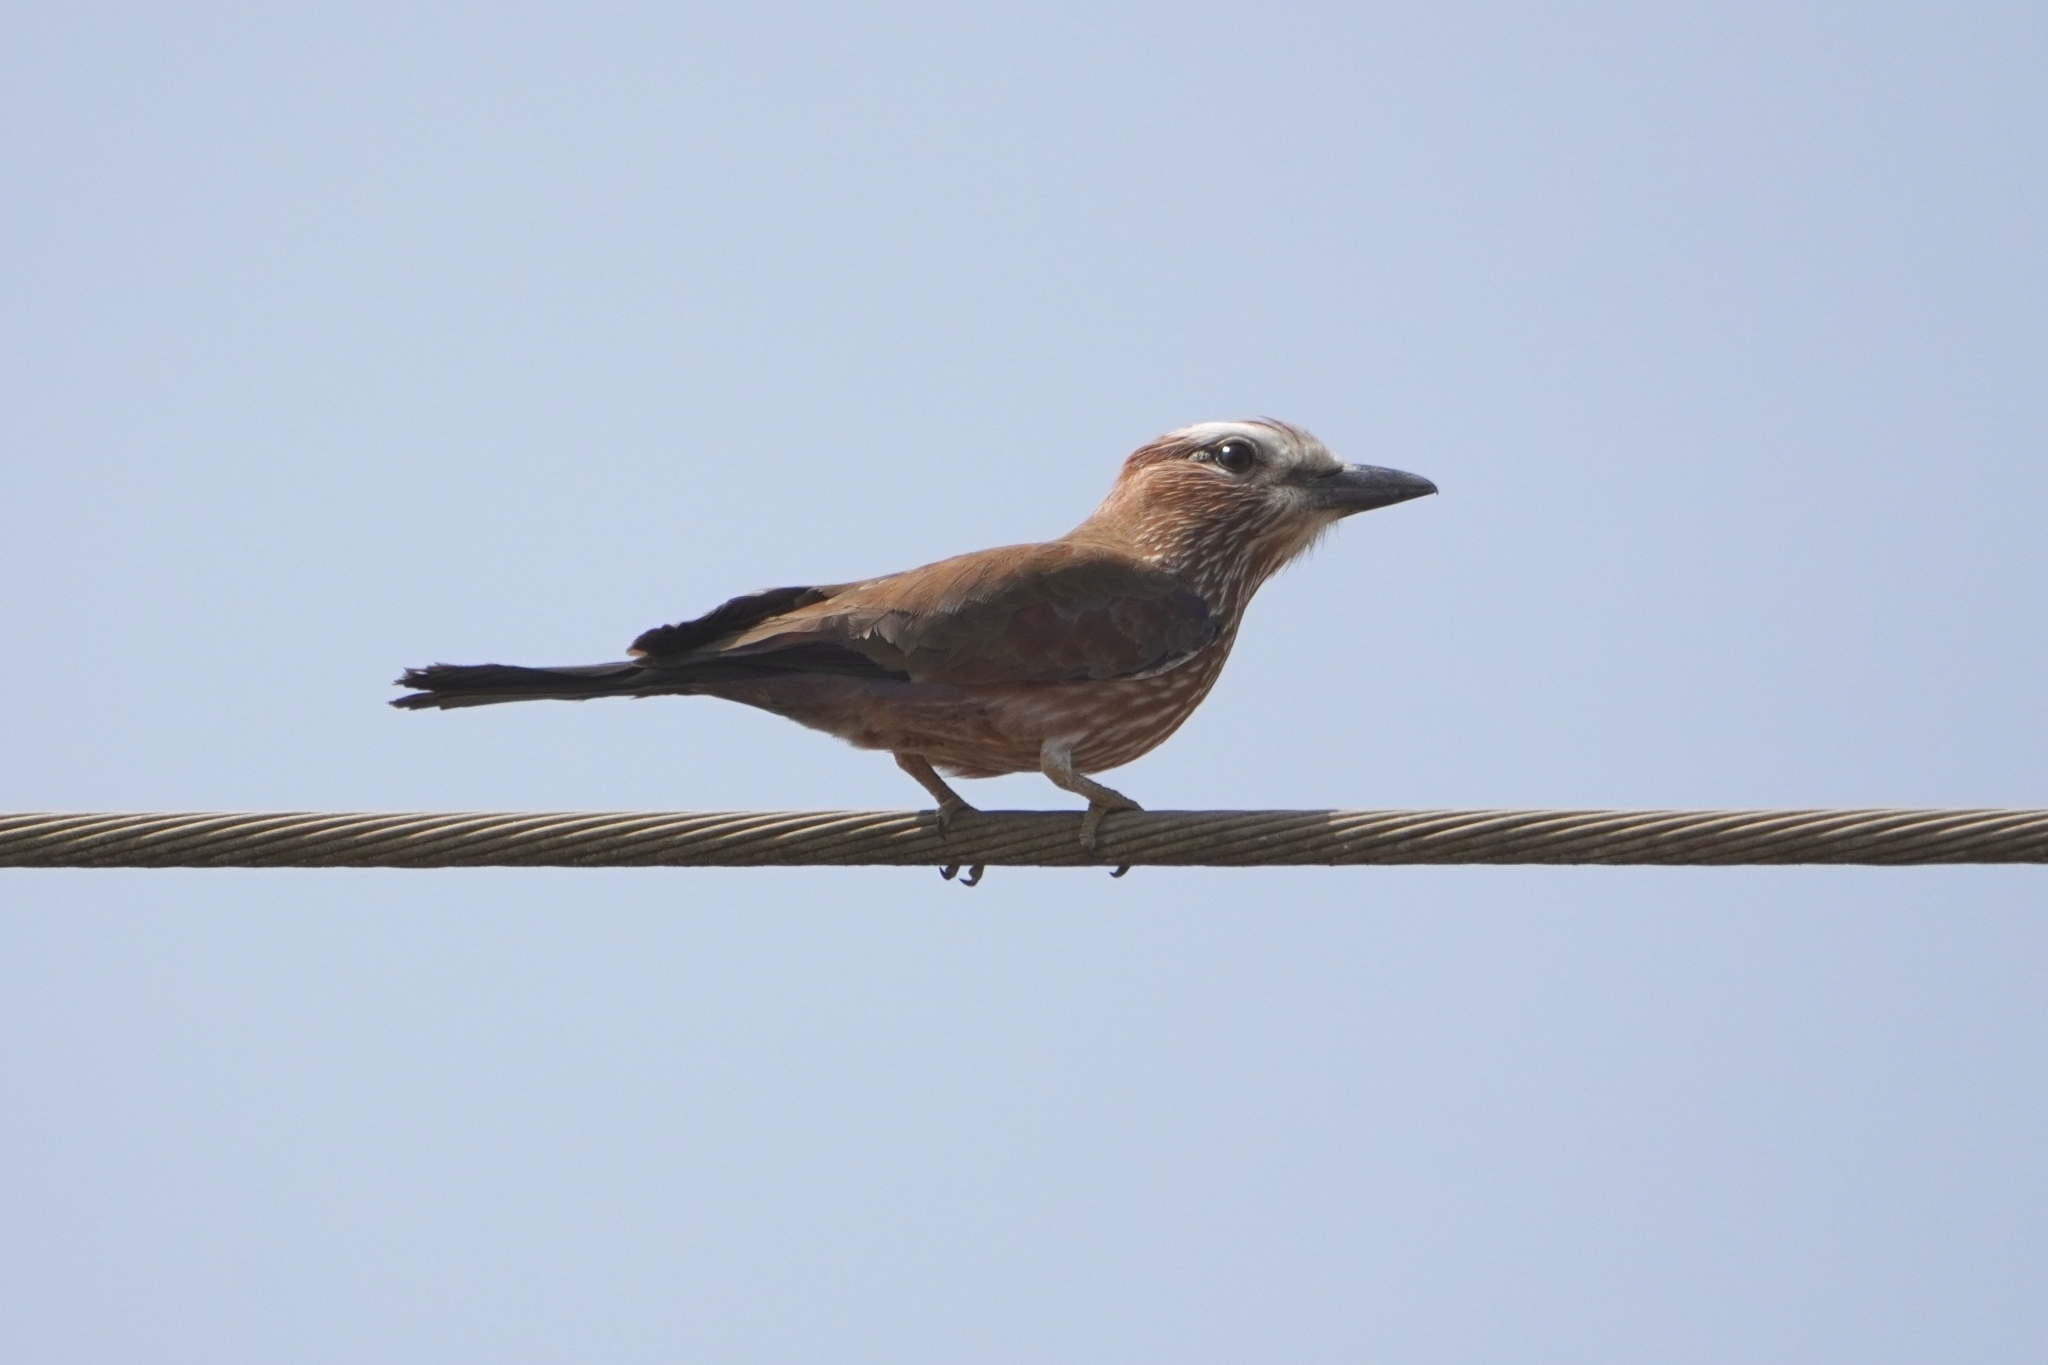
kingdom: Animalia
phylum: Chordata
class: Aves
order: Coraciiformes
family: Coraciidae
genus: Coracias
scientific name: Coracias naevius
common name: Purple roller
